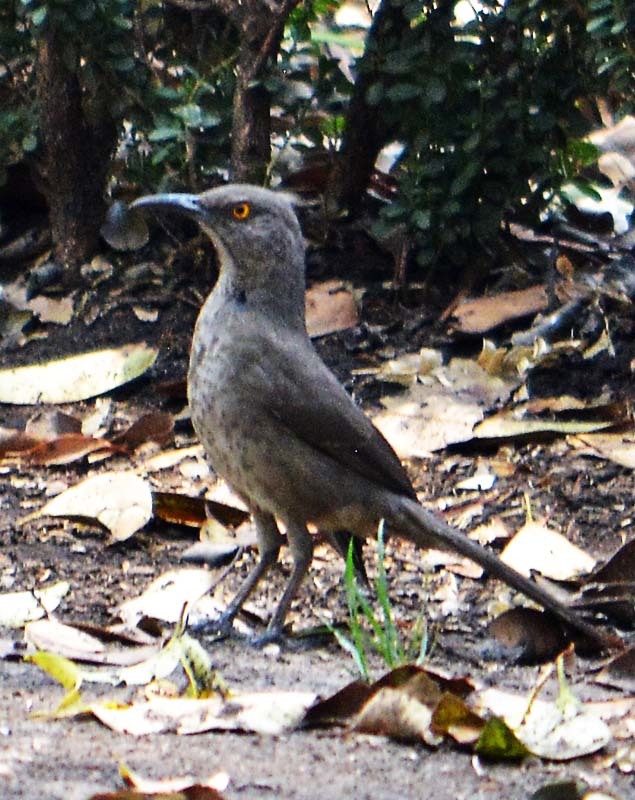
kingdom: Animalia
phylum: Chordata
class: Aves
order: Passeriformes
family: Mimidae
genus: Toxostoma
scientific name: Toxostoma curvirostre
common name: Curve-billed thrasher
